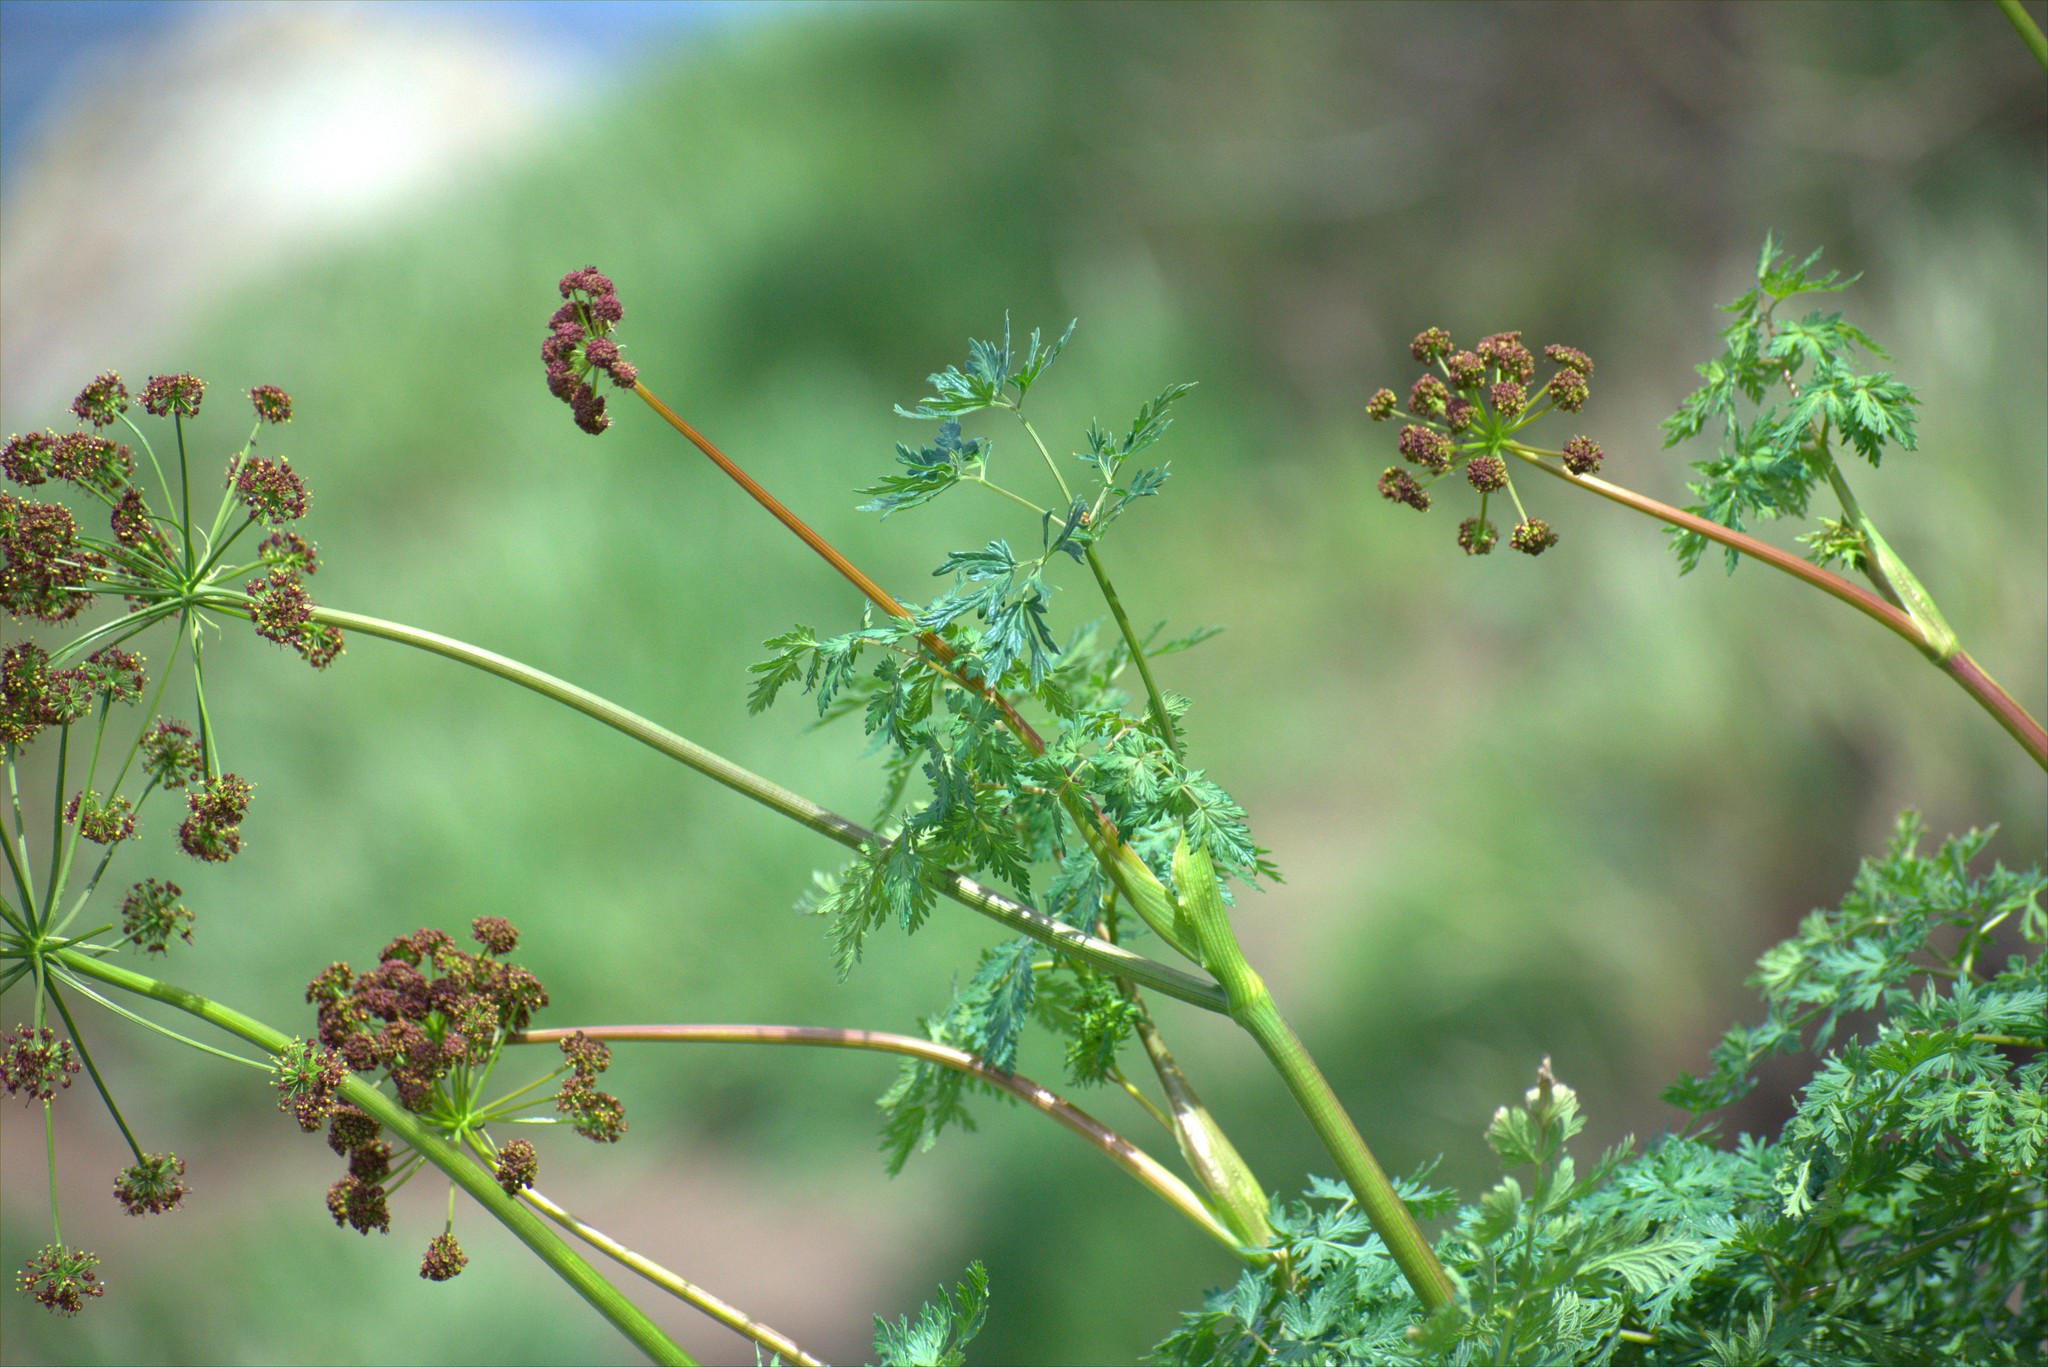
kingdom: Plantae
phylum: Tracheophyta
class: Magnoliopsida
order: Apiales
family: Apiaceae
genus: Lomatium
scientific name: Lomatium dissectum
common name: Lomatium
